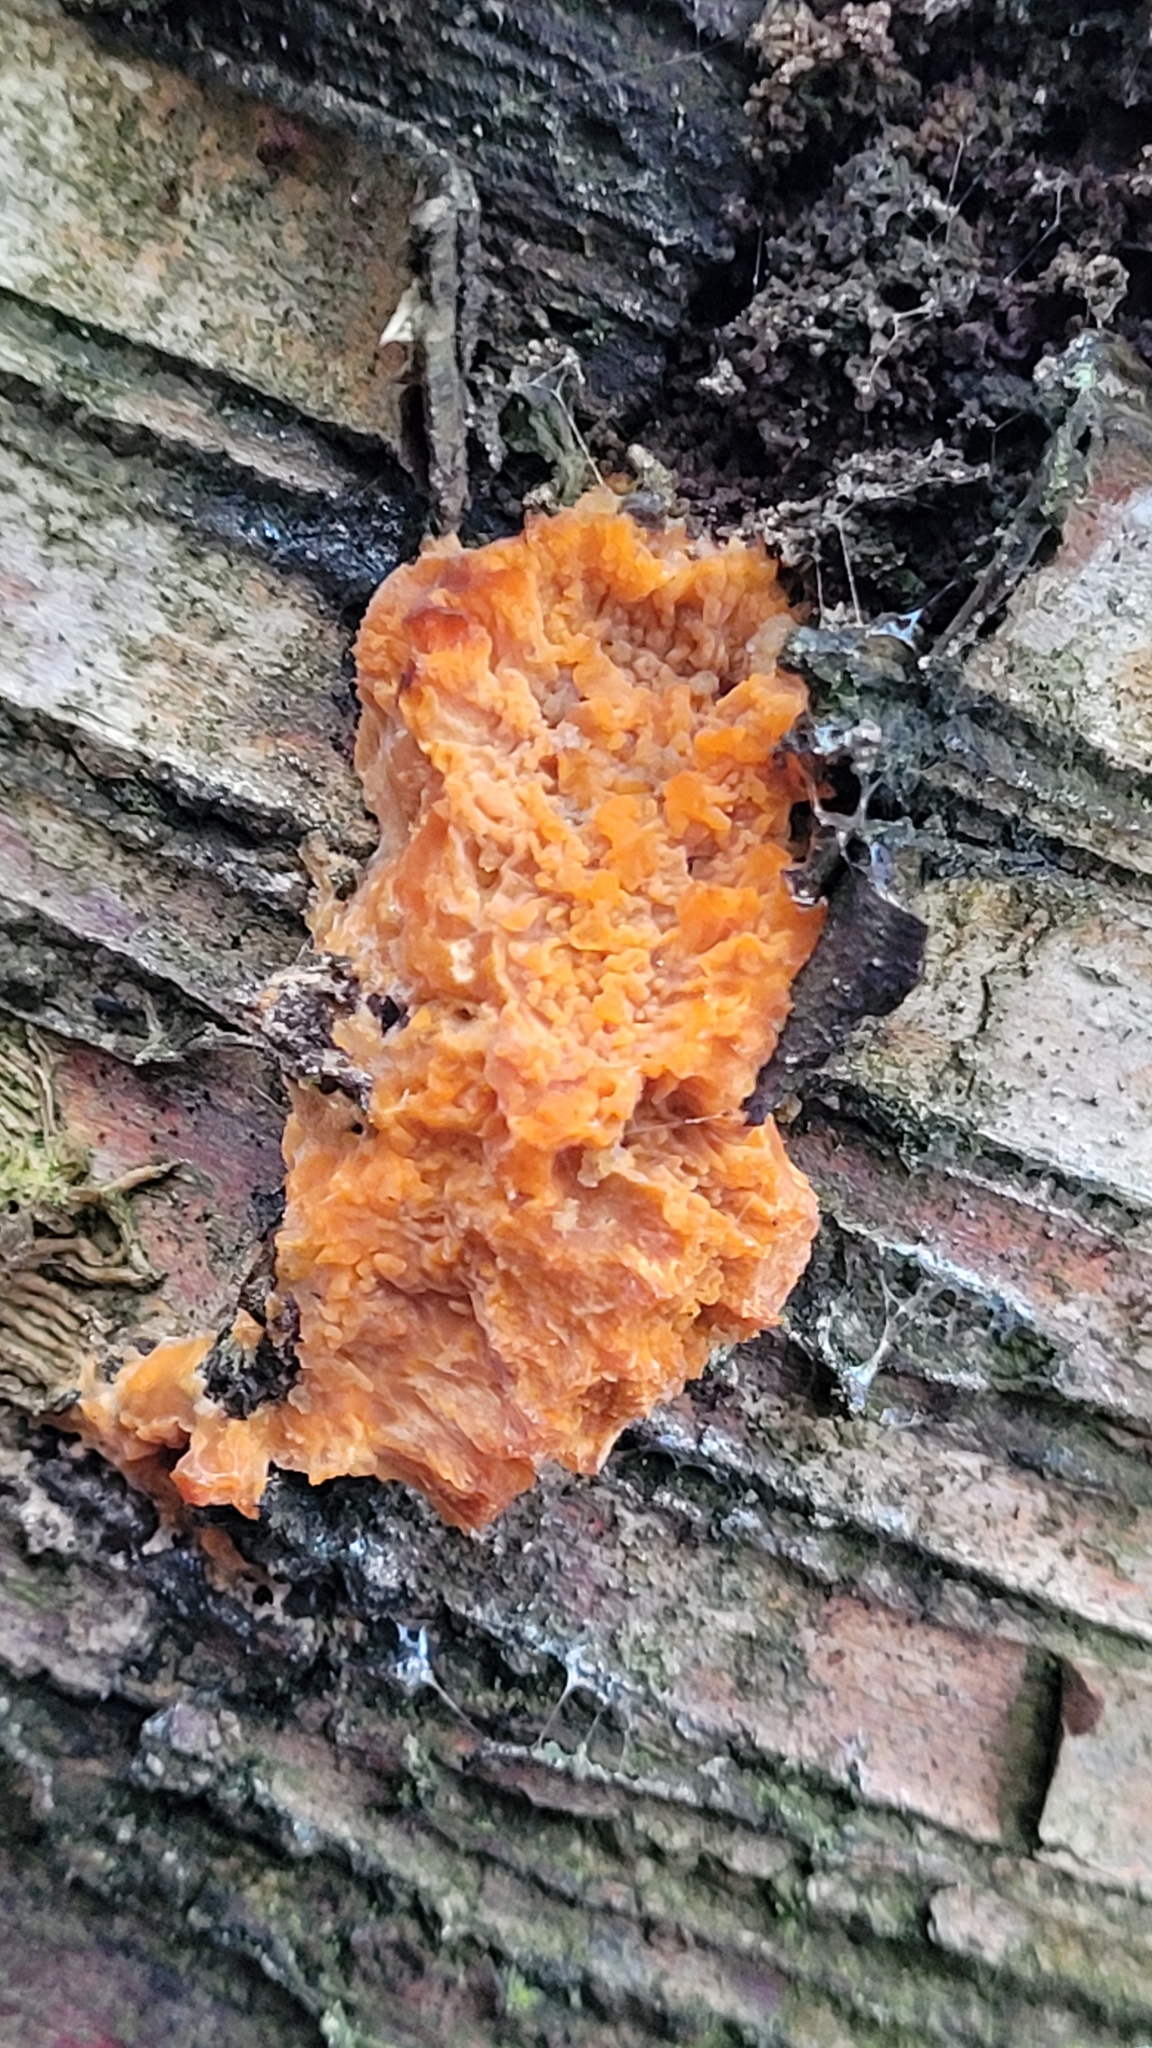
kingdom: Fungi
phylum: Basidiomycota
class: Agaricomycetes
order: Polyporales
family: Meruliaceae
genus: Phlebia
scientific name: Phlebia radiata
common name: Wrinkled crust
